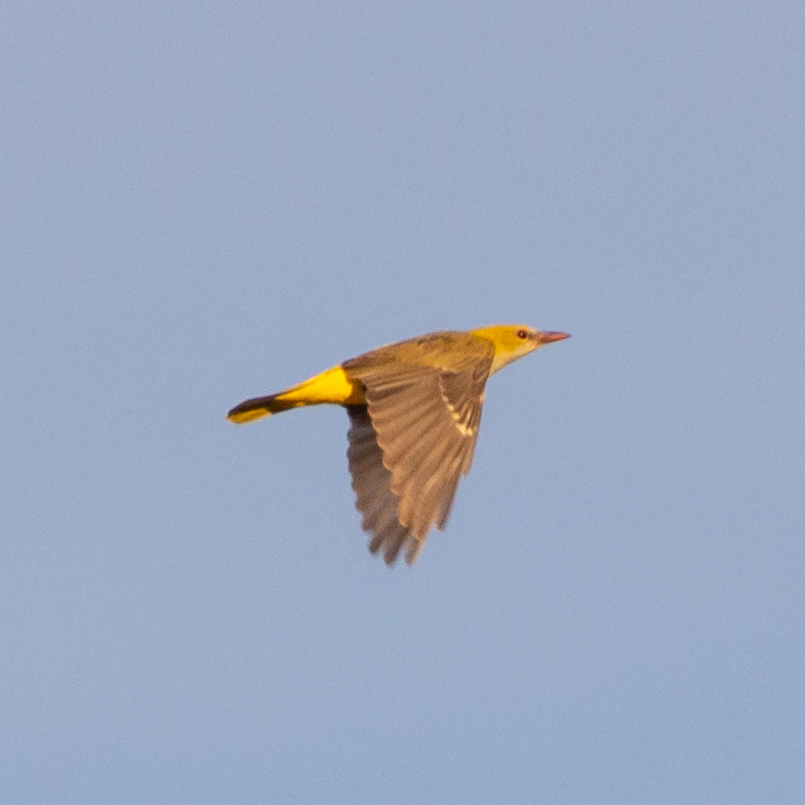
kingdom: Animalia
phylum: Chordata
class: Aves
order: Passeriformes
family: Oriolidae
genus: Oriolus
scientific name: Oriolus oriolus
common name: Eurasian golden oriole
